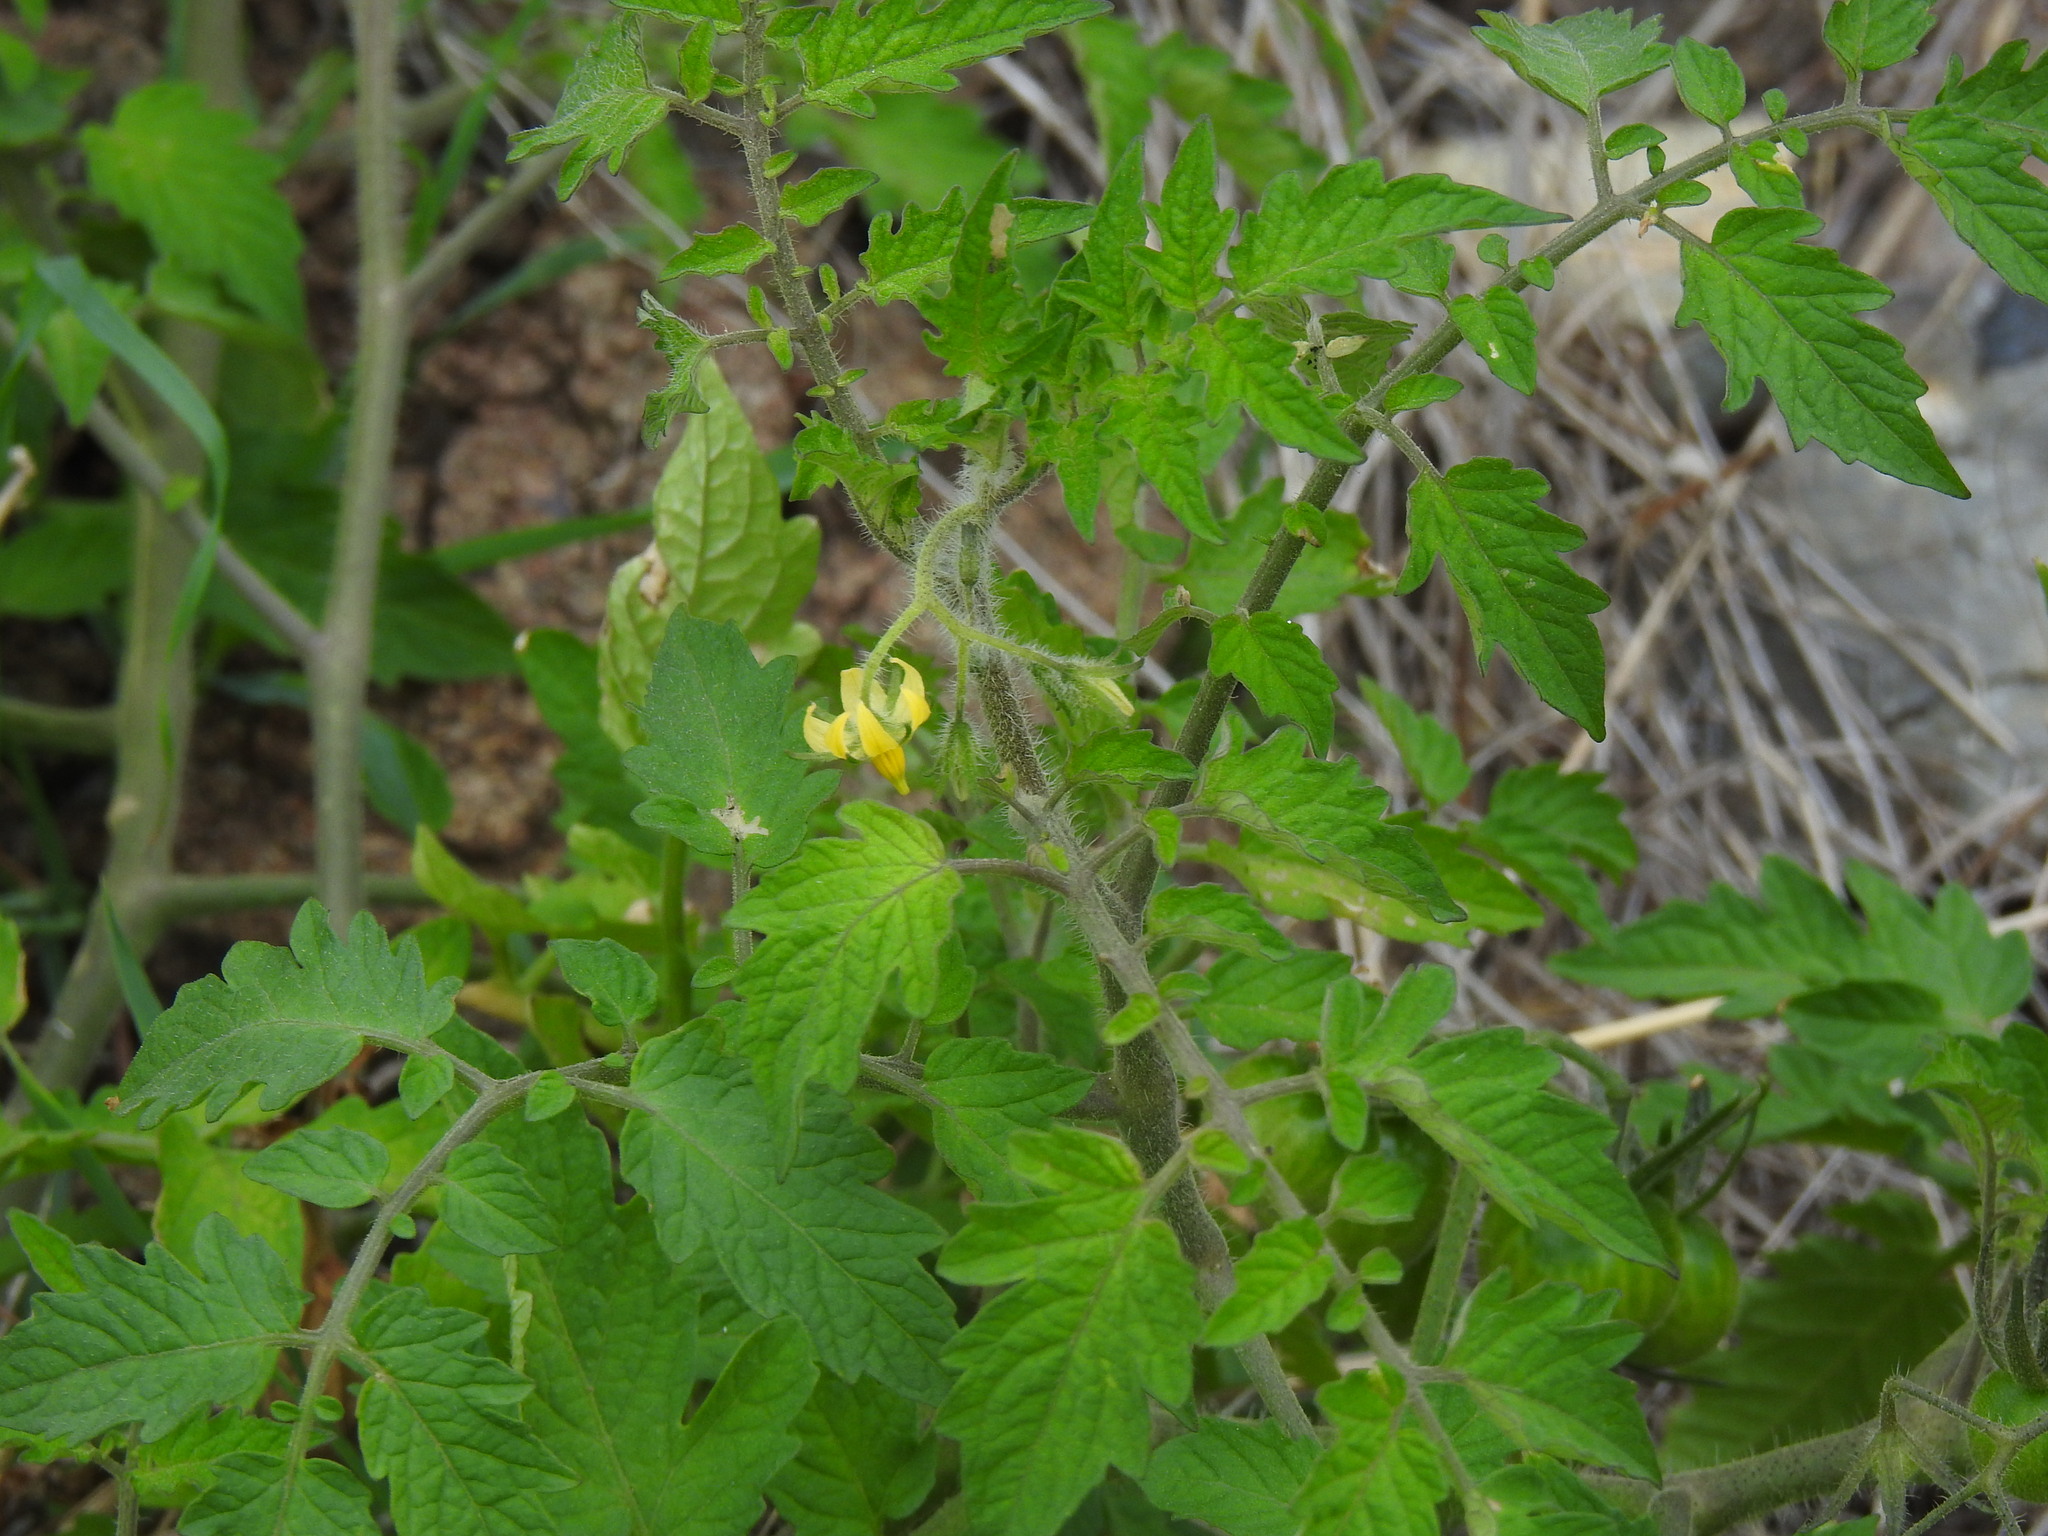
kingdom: Plantae
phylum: Tracheophyta
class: Magnoliopsida
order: Solanales
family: Solanaceae
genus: Solanum
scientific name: Solanum lycopersicum
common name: Garden tomato
